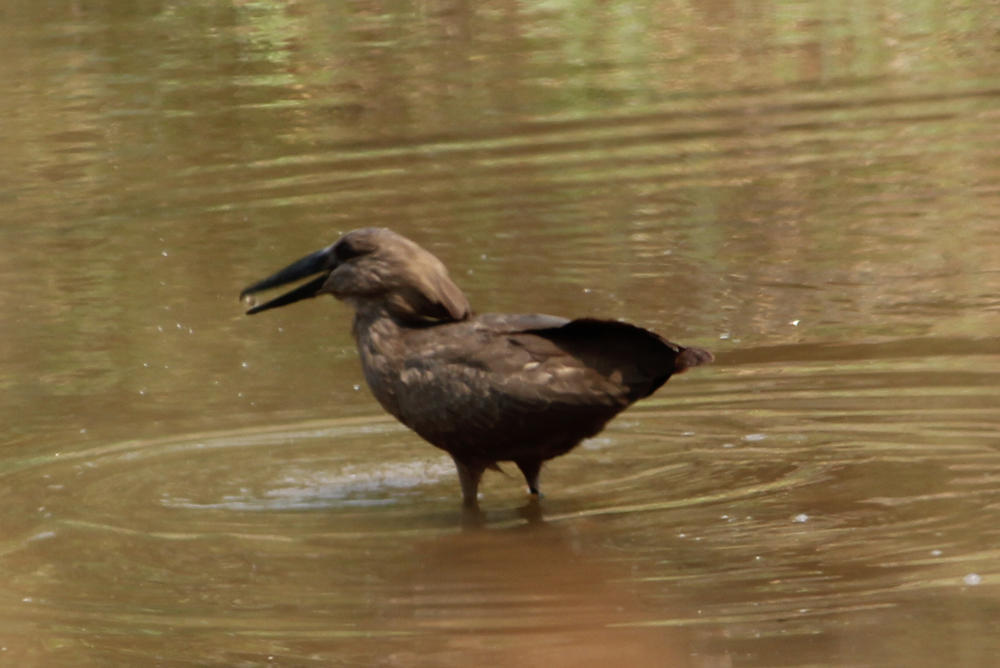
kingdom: Animalia
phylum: Chordata
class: Aves
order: Pelecaniformes
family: Scopidae
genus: Scopus
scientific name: Scopus umbretta
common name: Hamerkop
